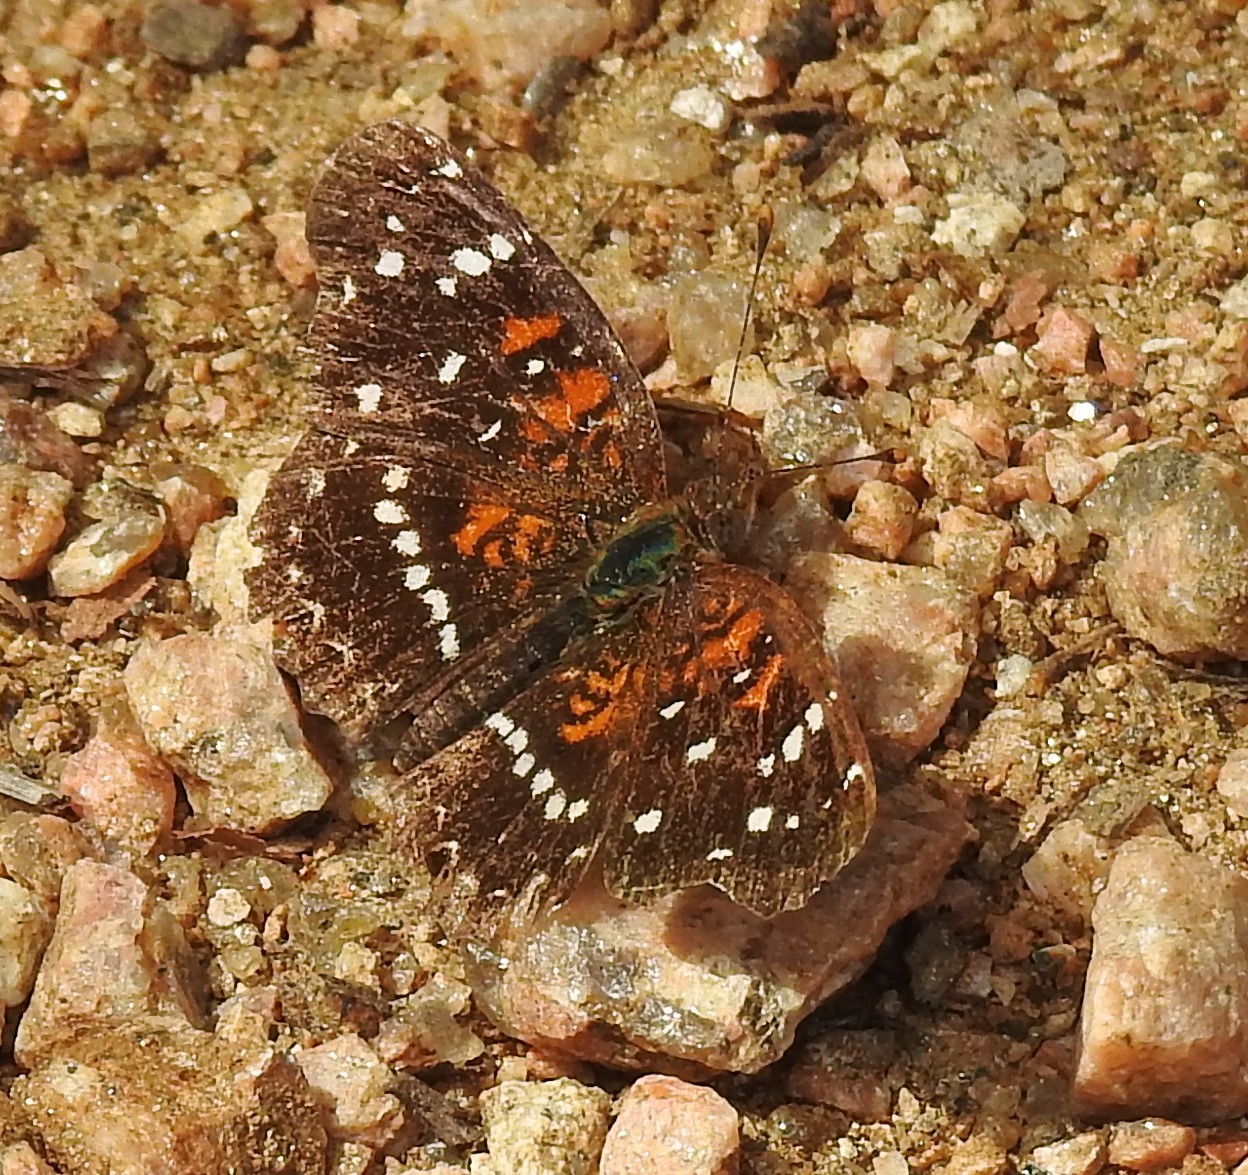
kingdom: Animalia
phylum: Arthropoda
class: Insecta
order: Lepidoptera
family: Nymphalidae
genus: Anthanassa
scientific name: Anthanassa texana
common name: Texan crescent
